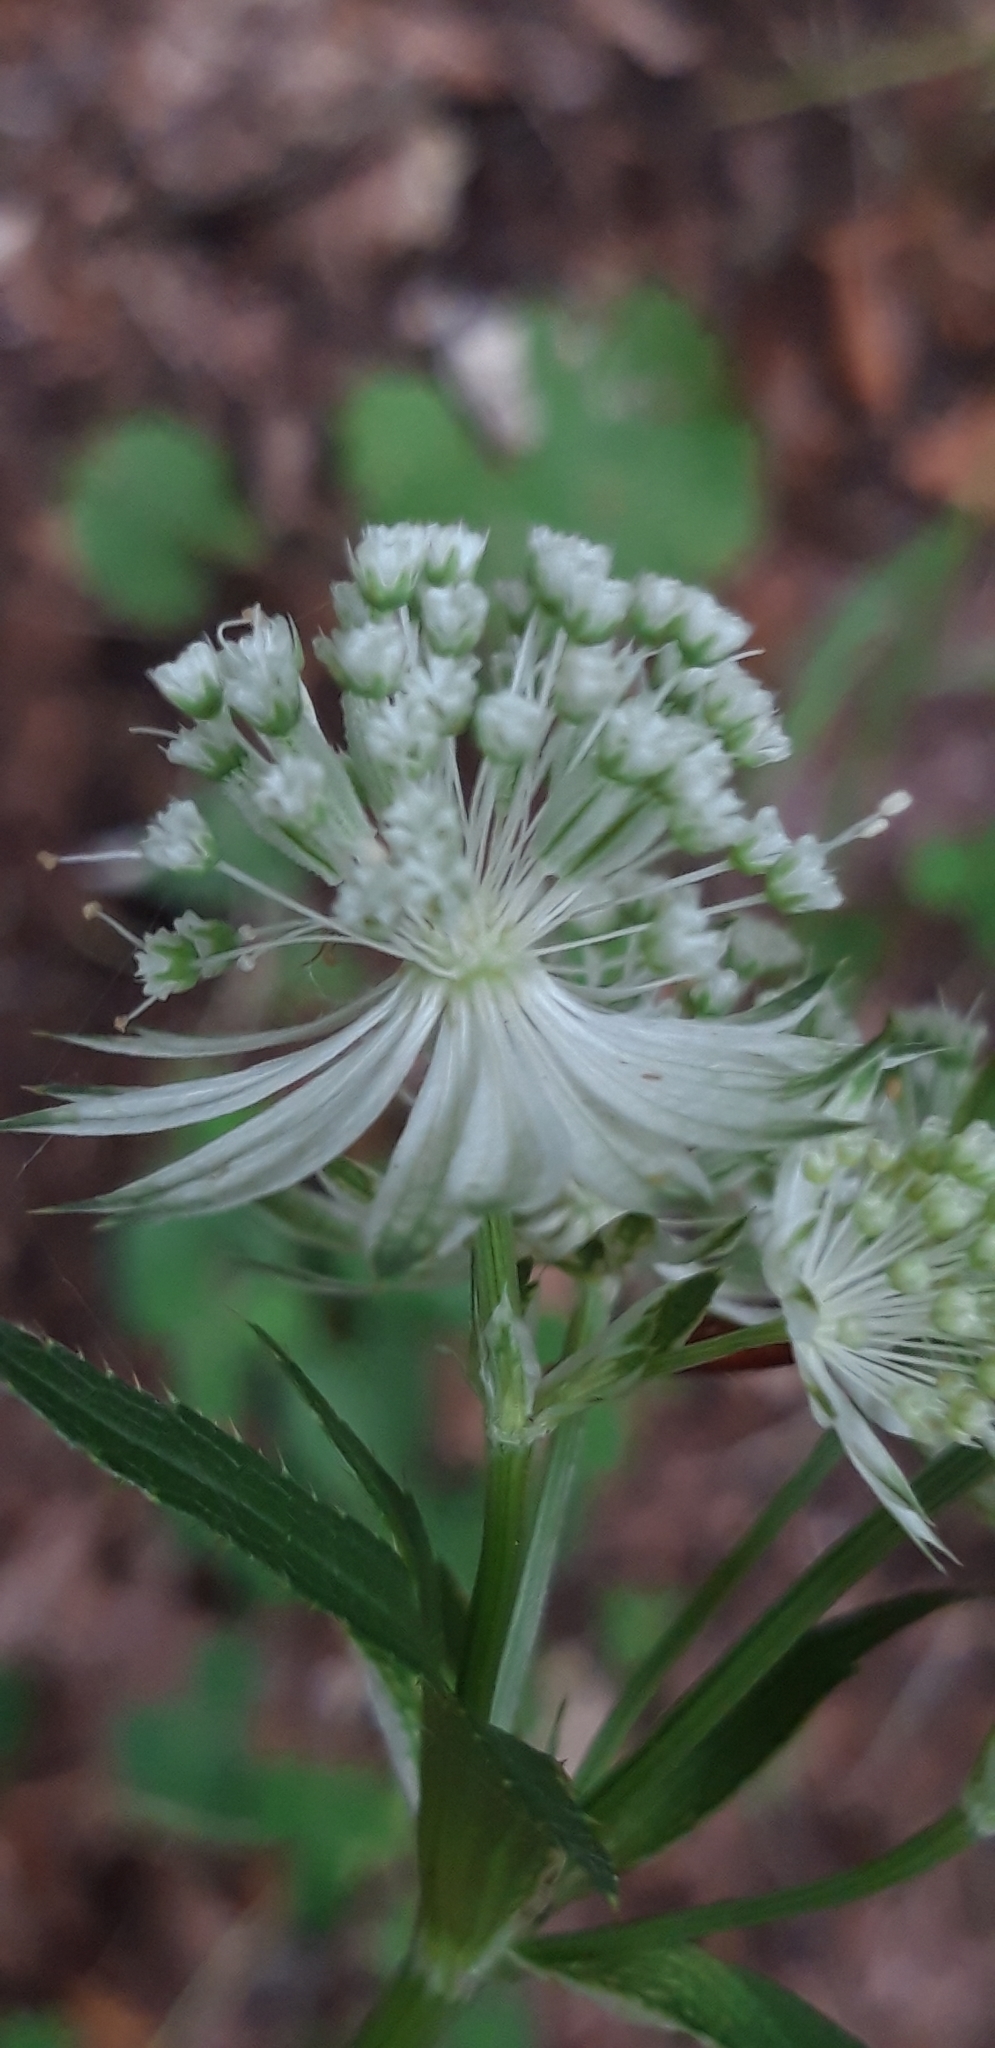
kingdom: Plantae
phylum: Tracheophyta
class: Magnoliopsida
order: Apiales
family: Apiaceae
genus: Astrantia
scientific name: Astrantia major
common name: Greater masterwort
